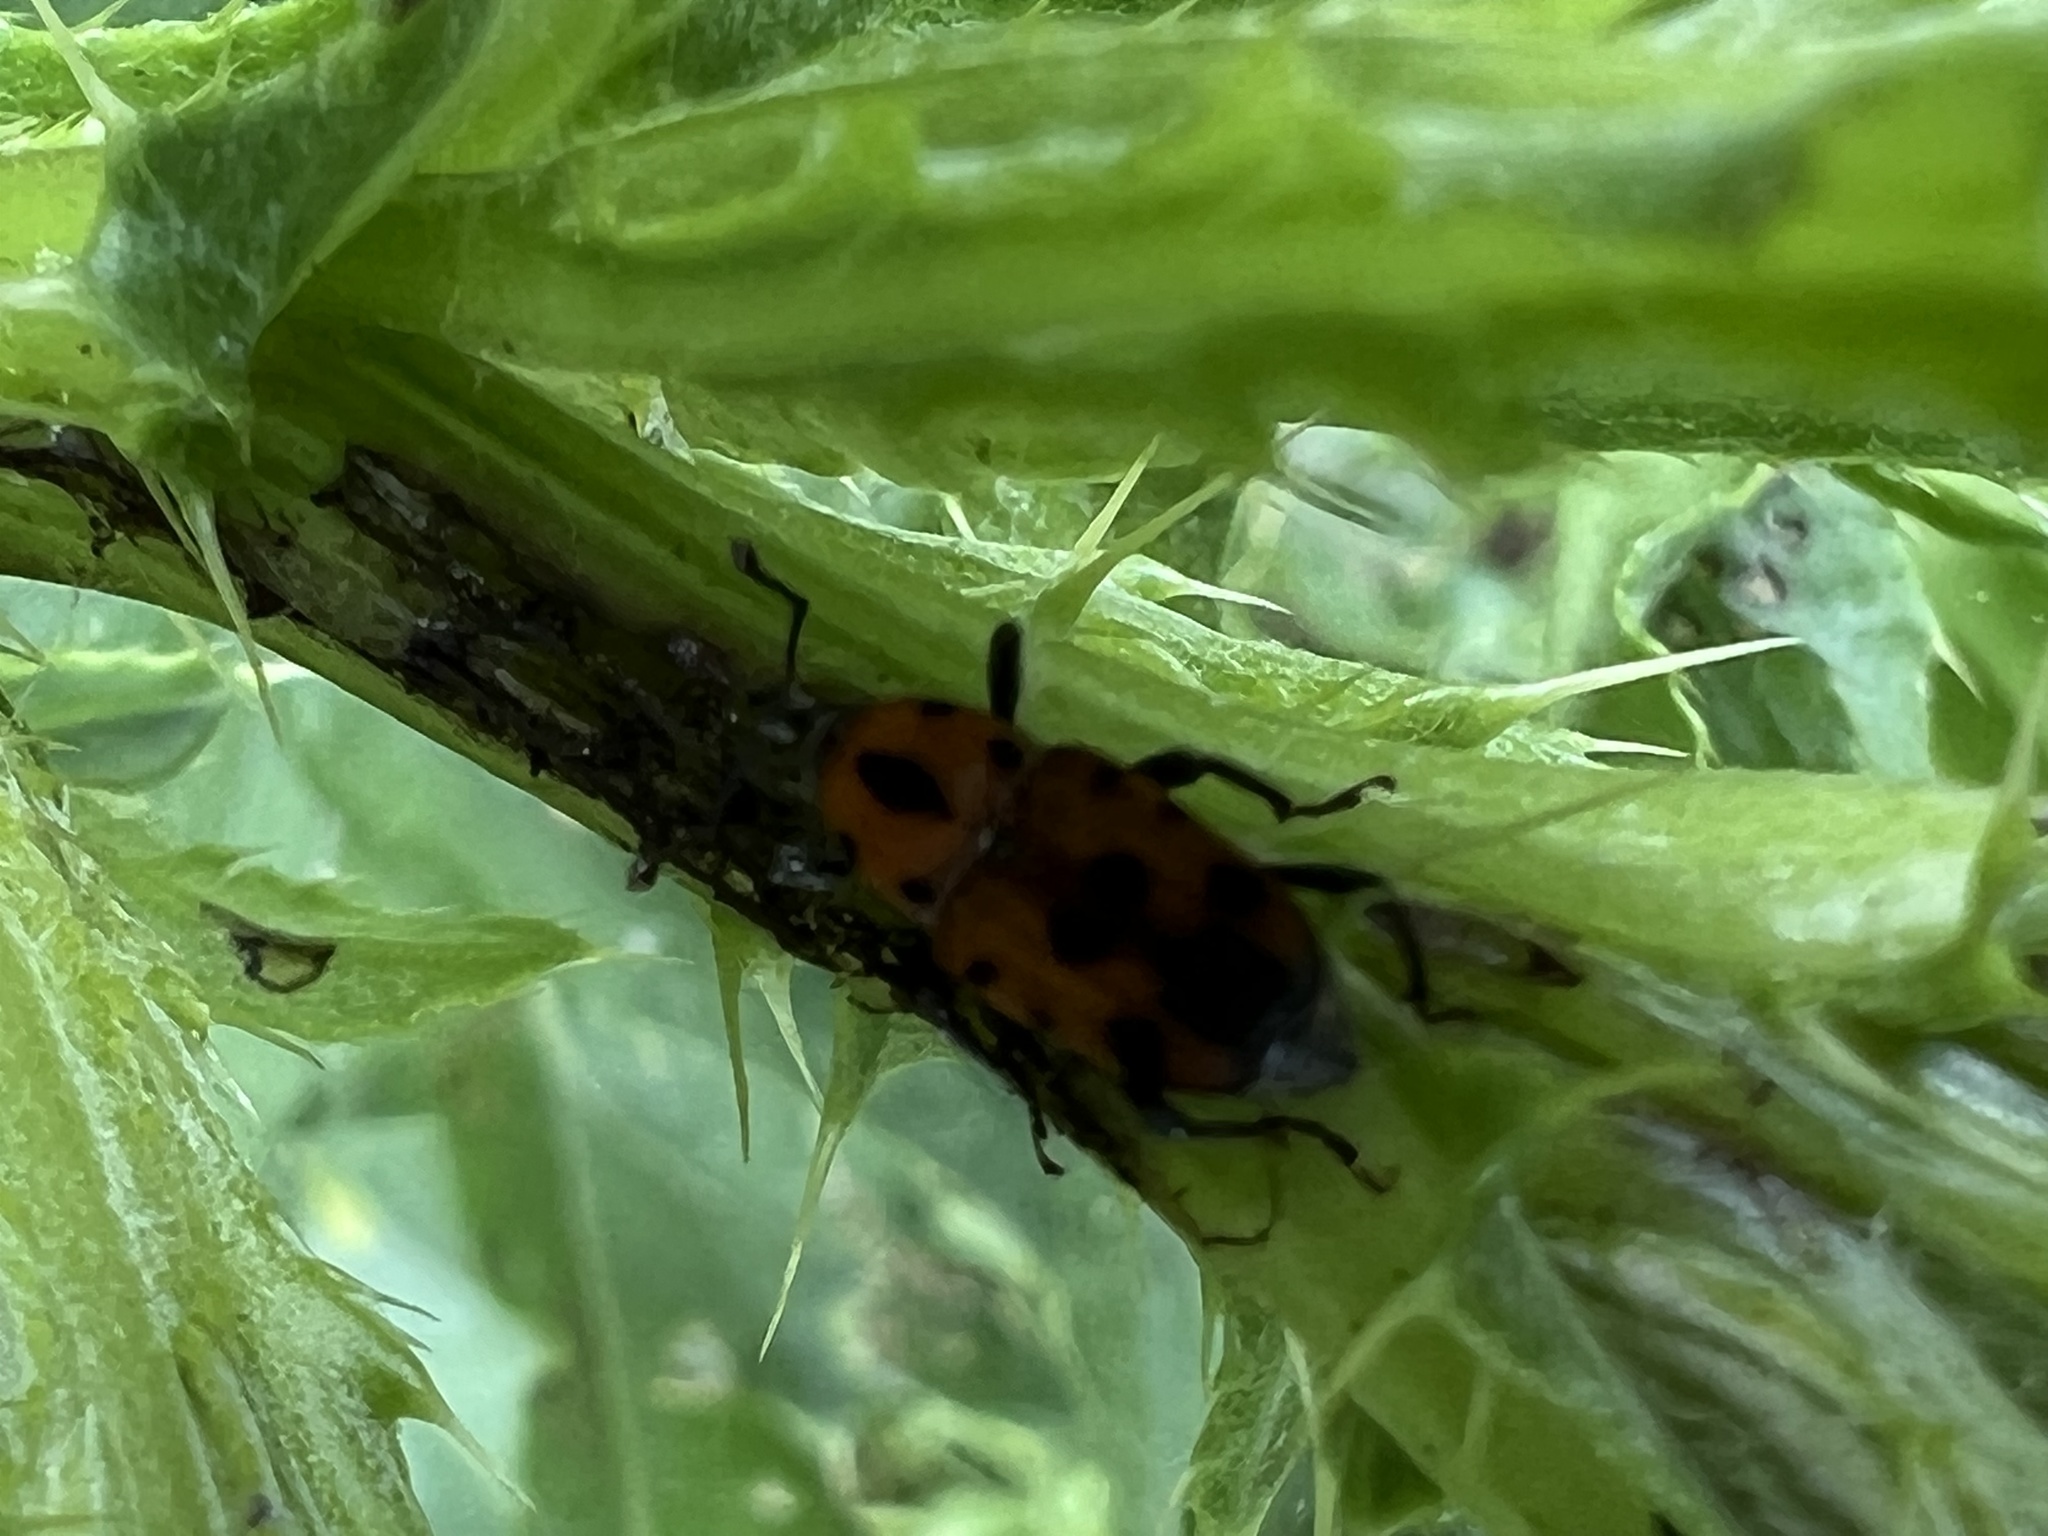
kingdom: Animalia
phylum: Arthropoda
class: Insecta
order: Coleoptera
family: Dryophthoridae
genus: Rhodobaenus
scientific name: Rhodobaenus quinquepunctatus
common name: Cocklebur weevil
